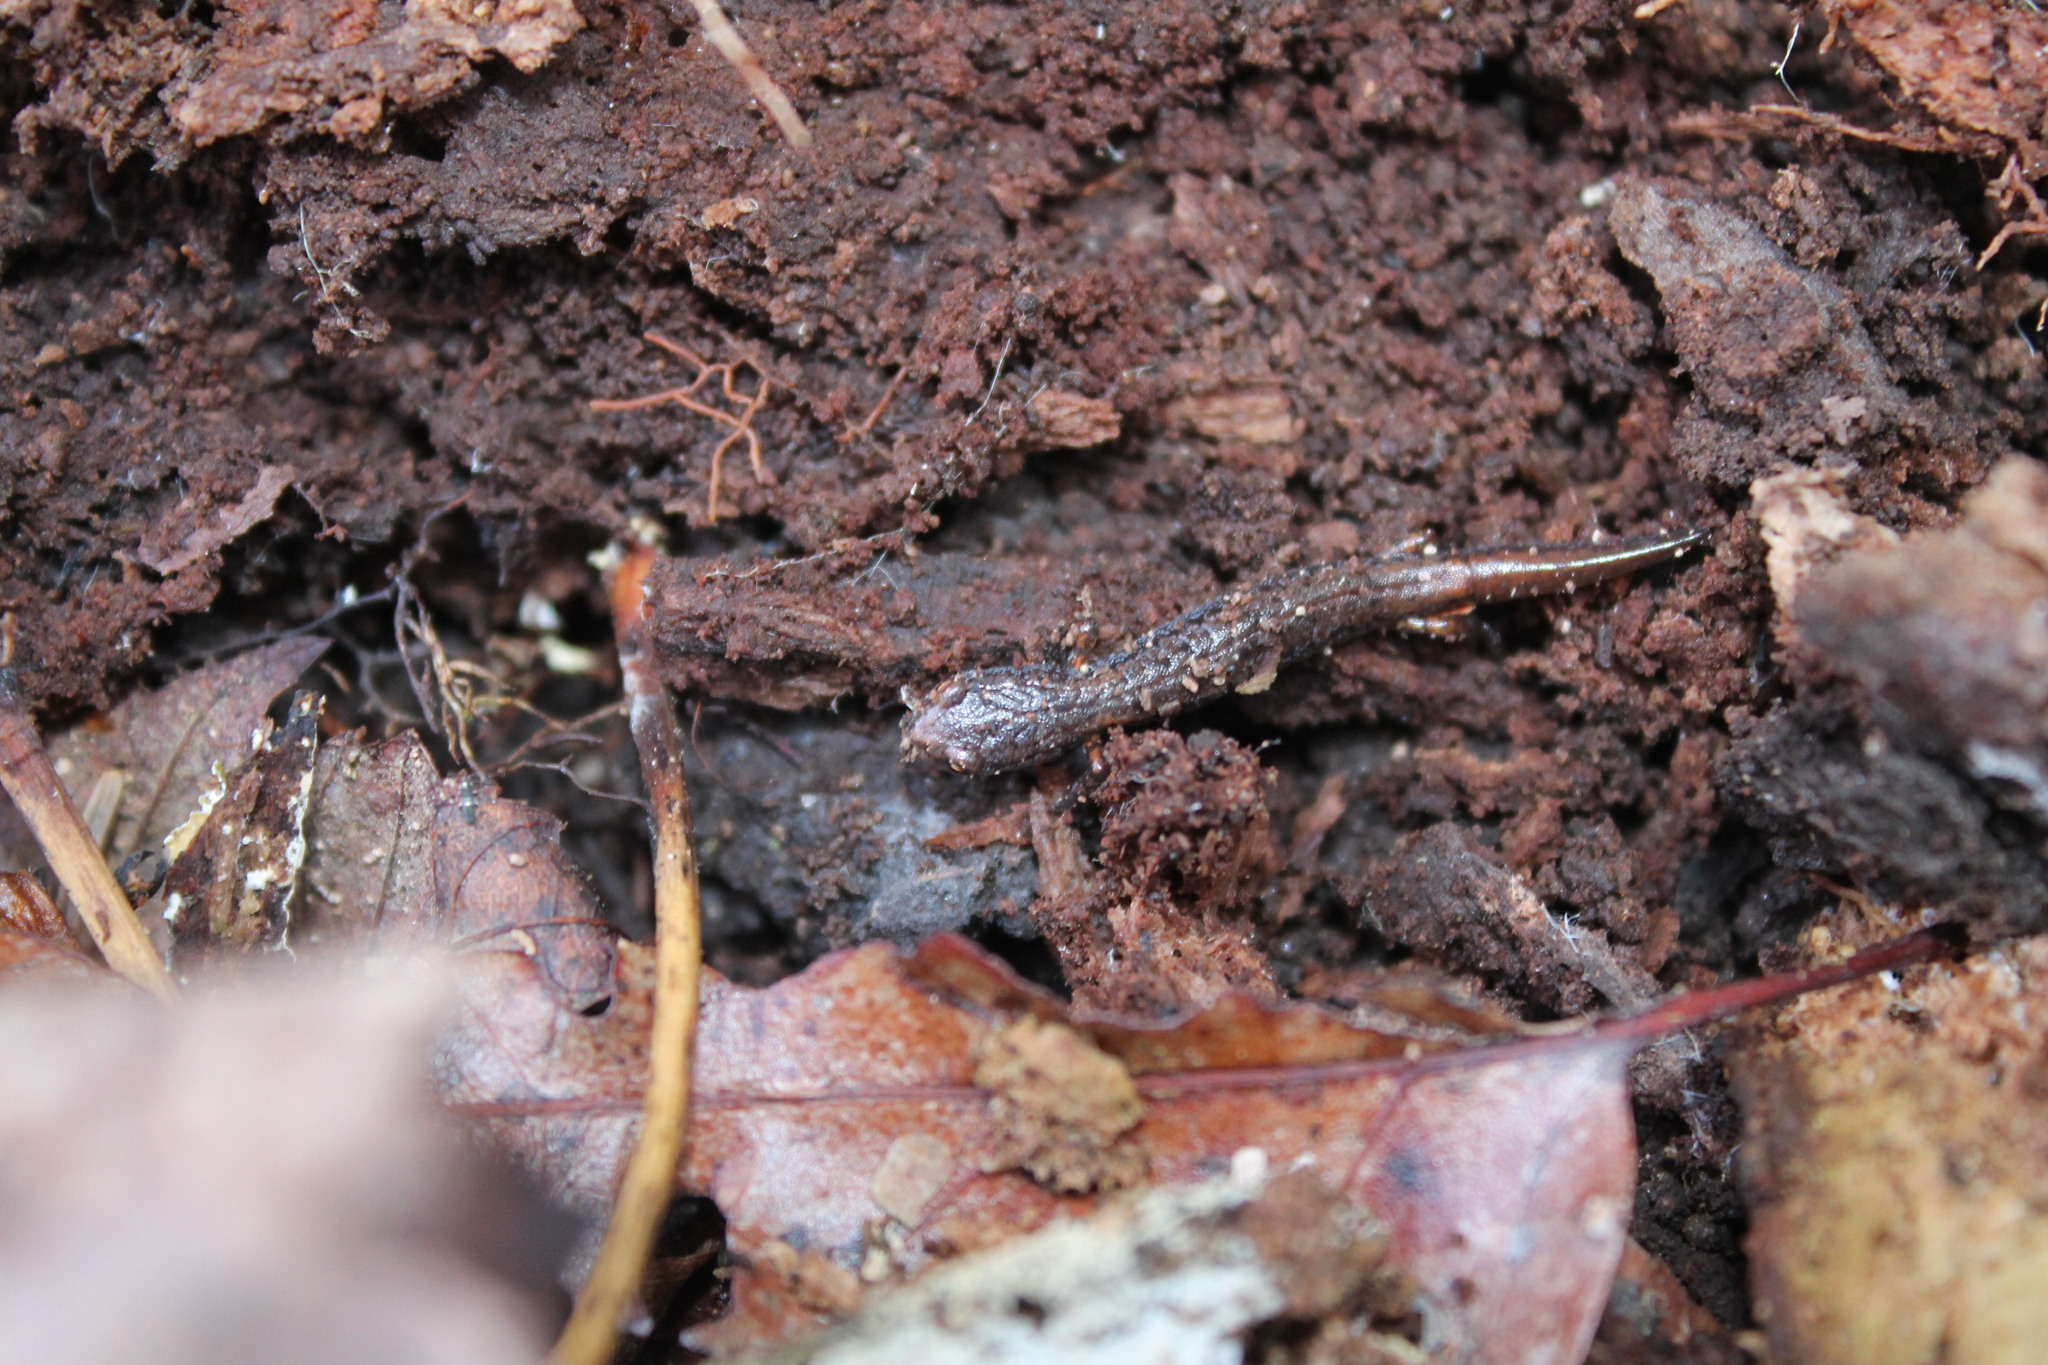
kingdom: Animalia
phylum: Chordata
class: Amphibia
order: Caudata
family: Plethodontidae
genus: Hemidactylium
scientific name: Hemidactylium scutatum
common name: Four-toed salamander
